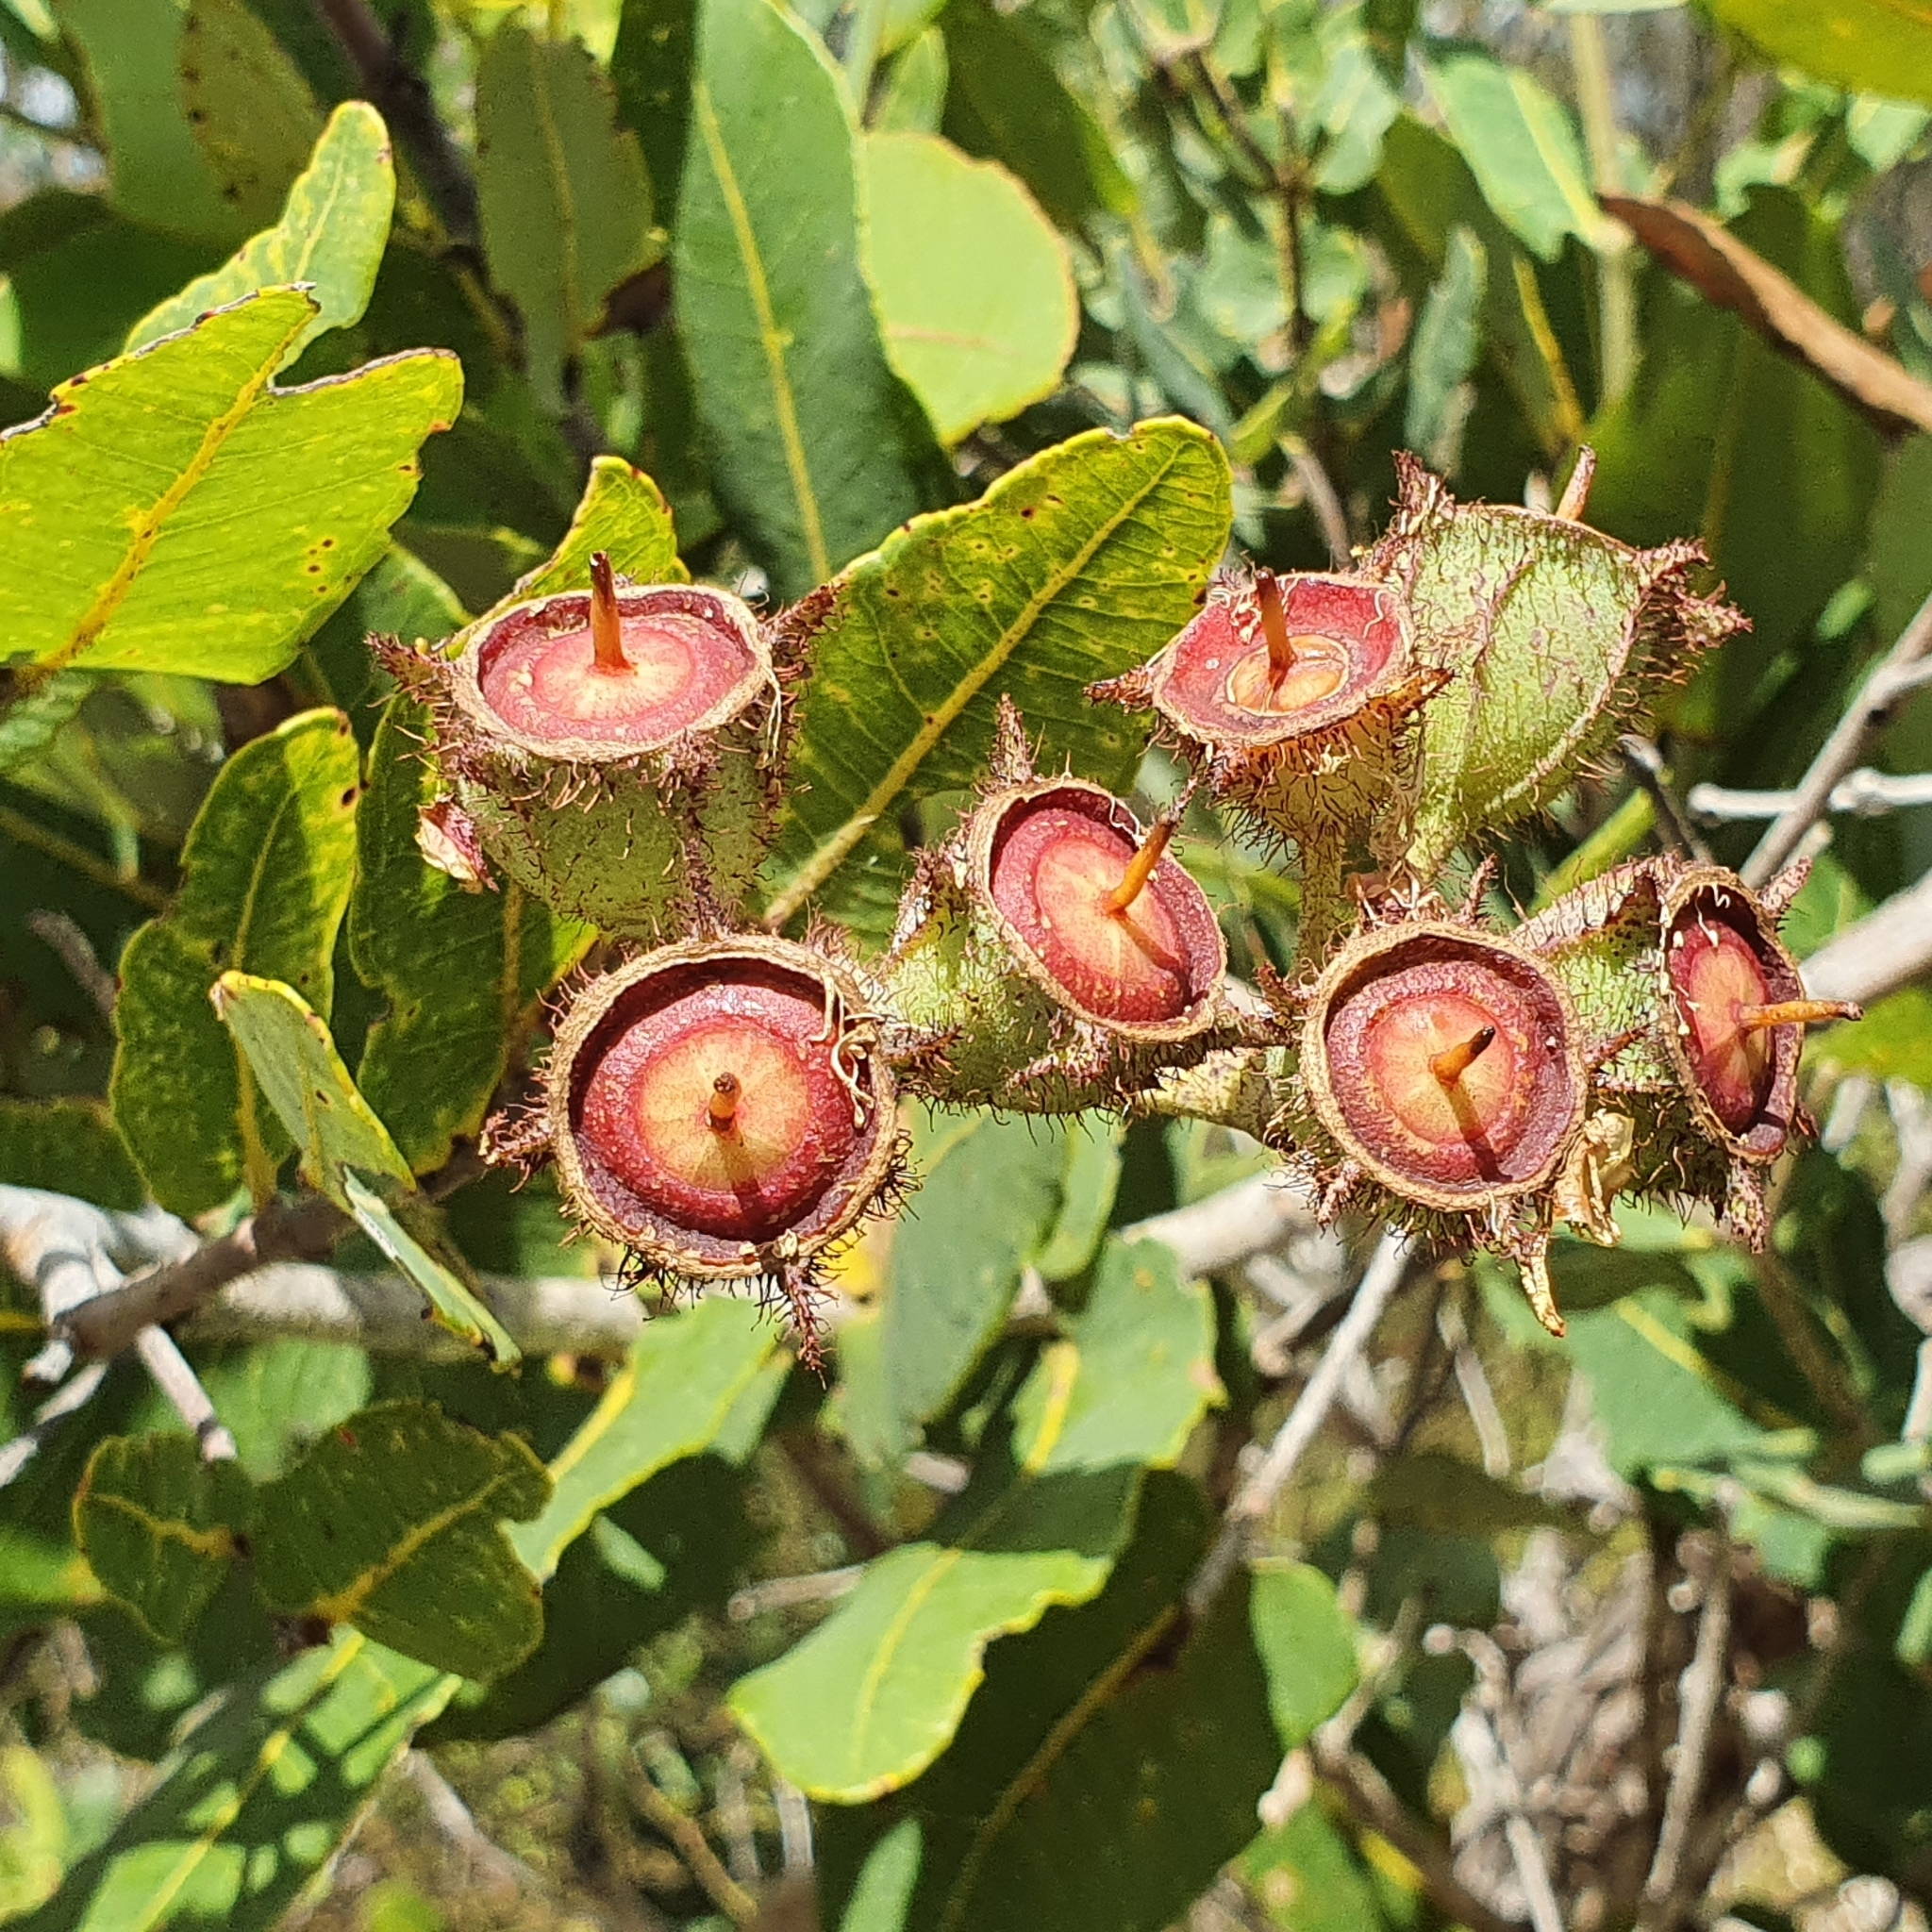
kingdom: Plantae
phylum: Tracheophyta
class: Magnoliopsida
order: Myrtales
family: Myrtaceae
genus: Angophora
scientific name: Angophora hispida
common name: Dwarf-apple
